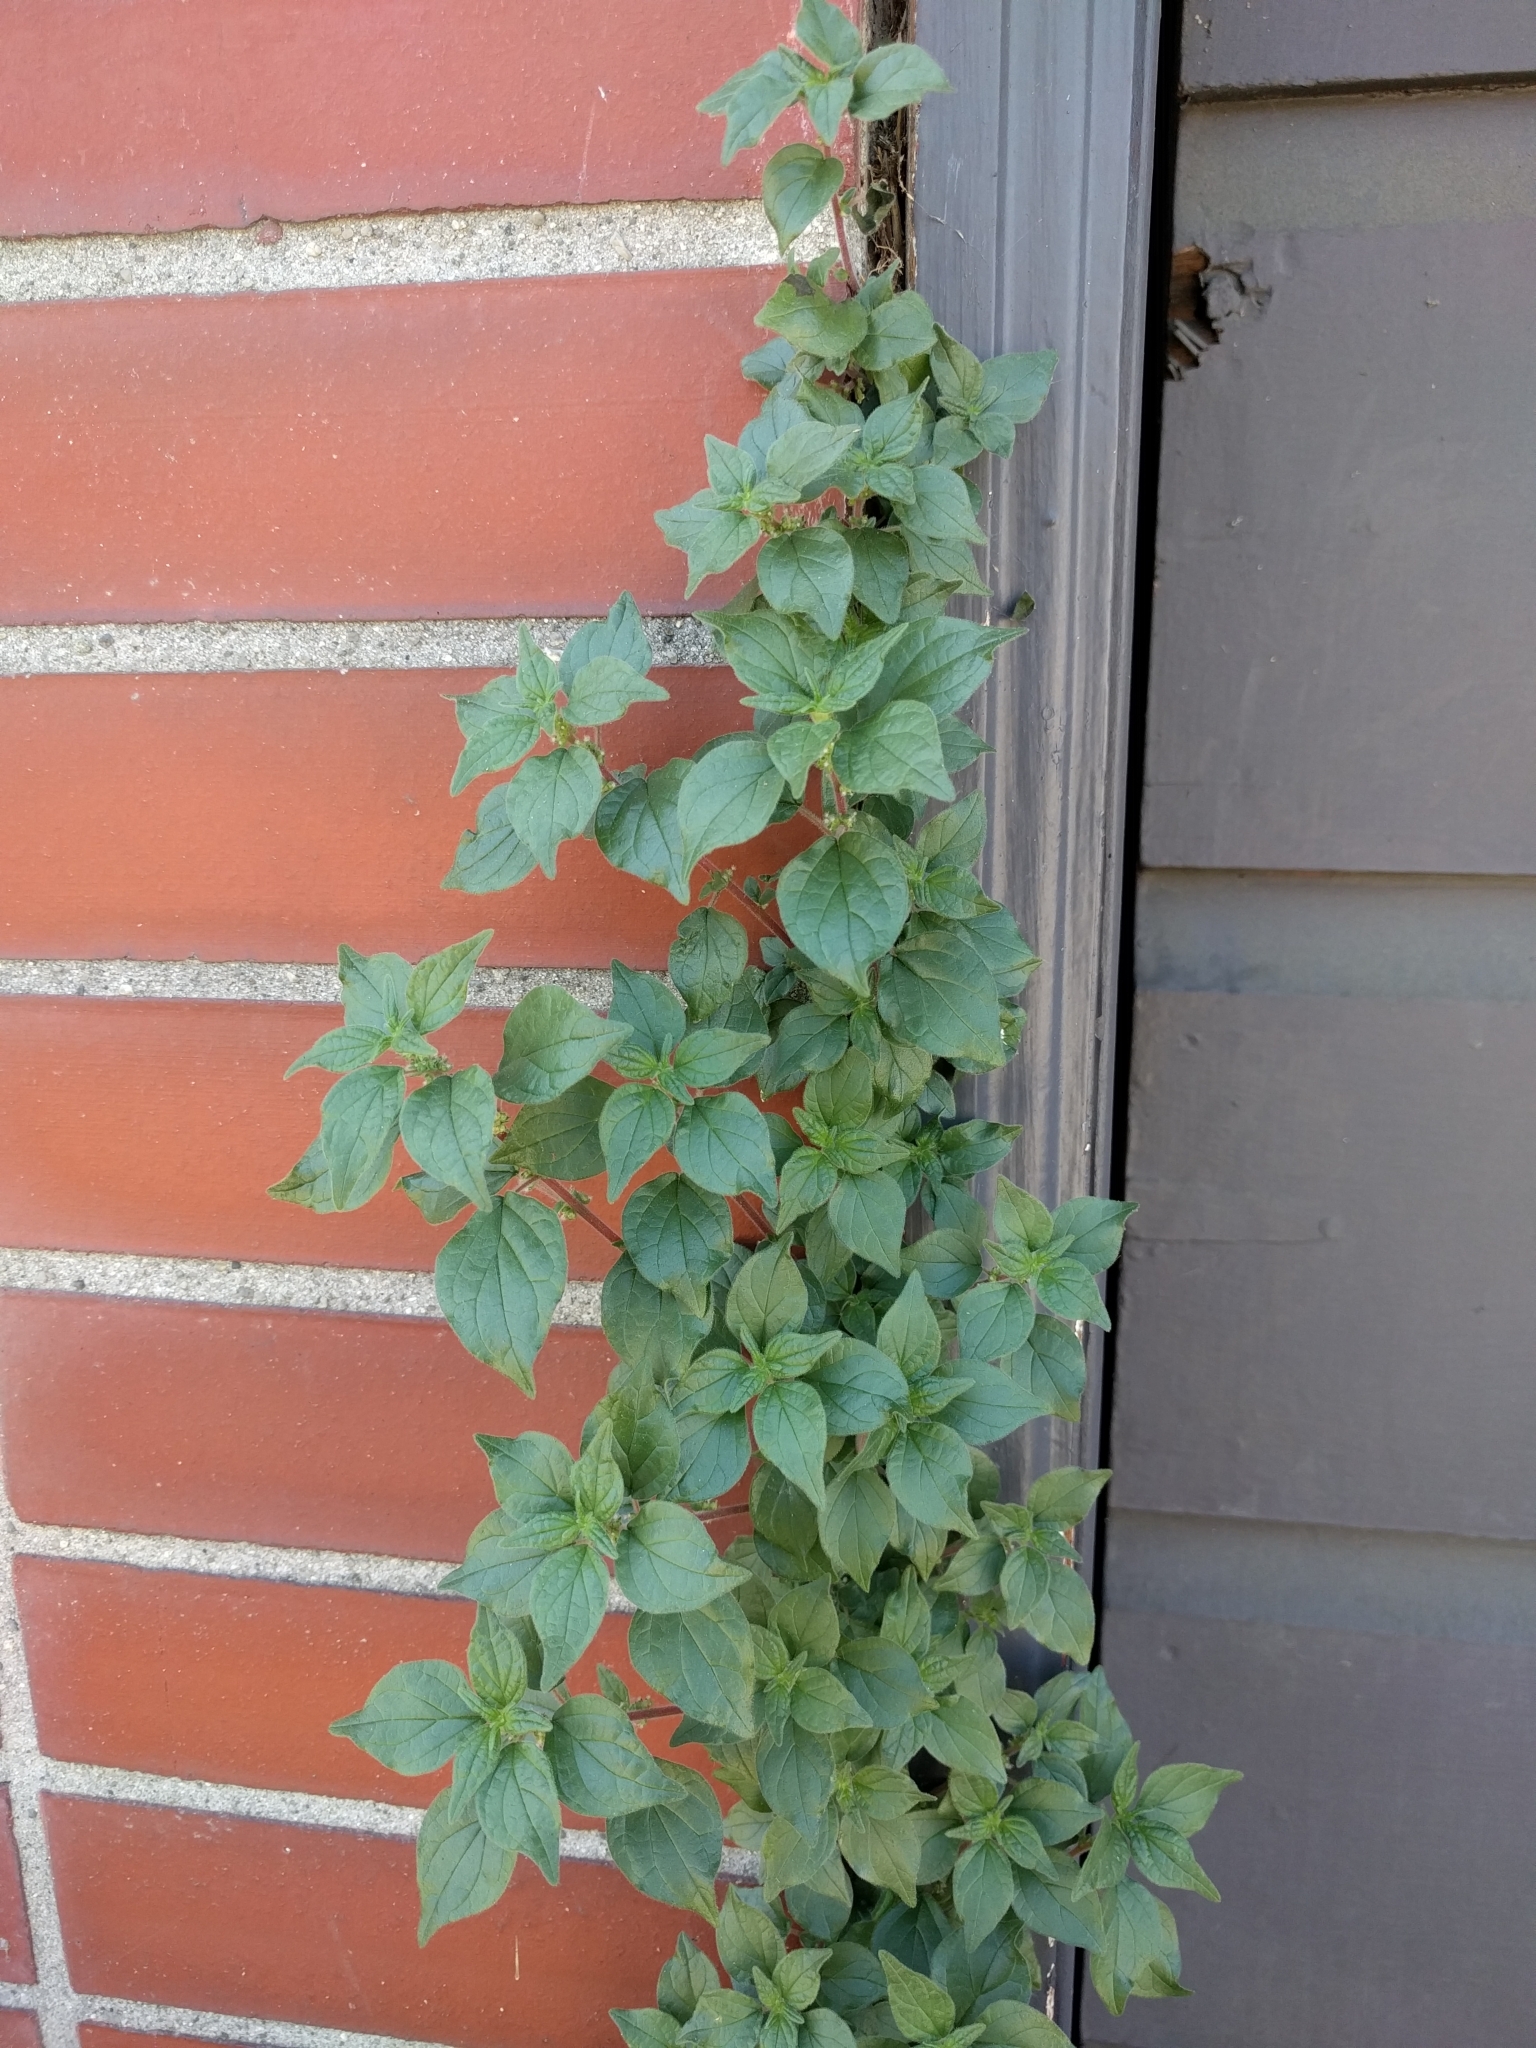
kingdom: Plantae
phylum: Tracheophyta
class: Magnoliopsida
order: Rosales
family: Urticaceae
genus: Parietaria
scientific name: Parietaria judaica
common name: Pellitory-of-the-wall
